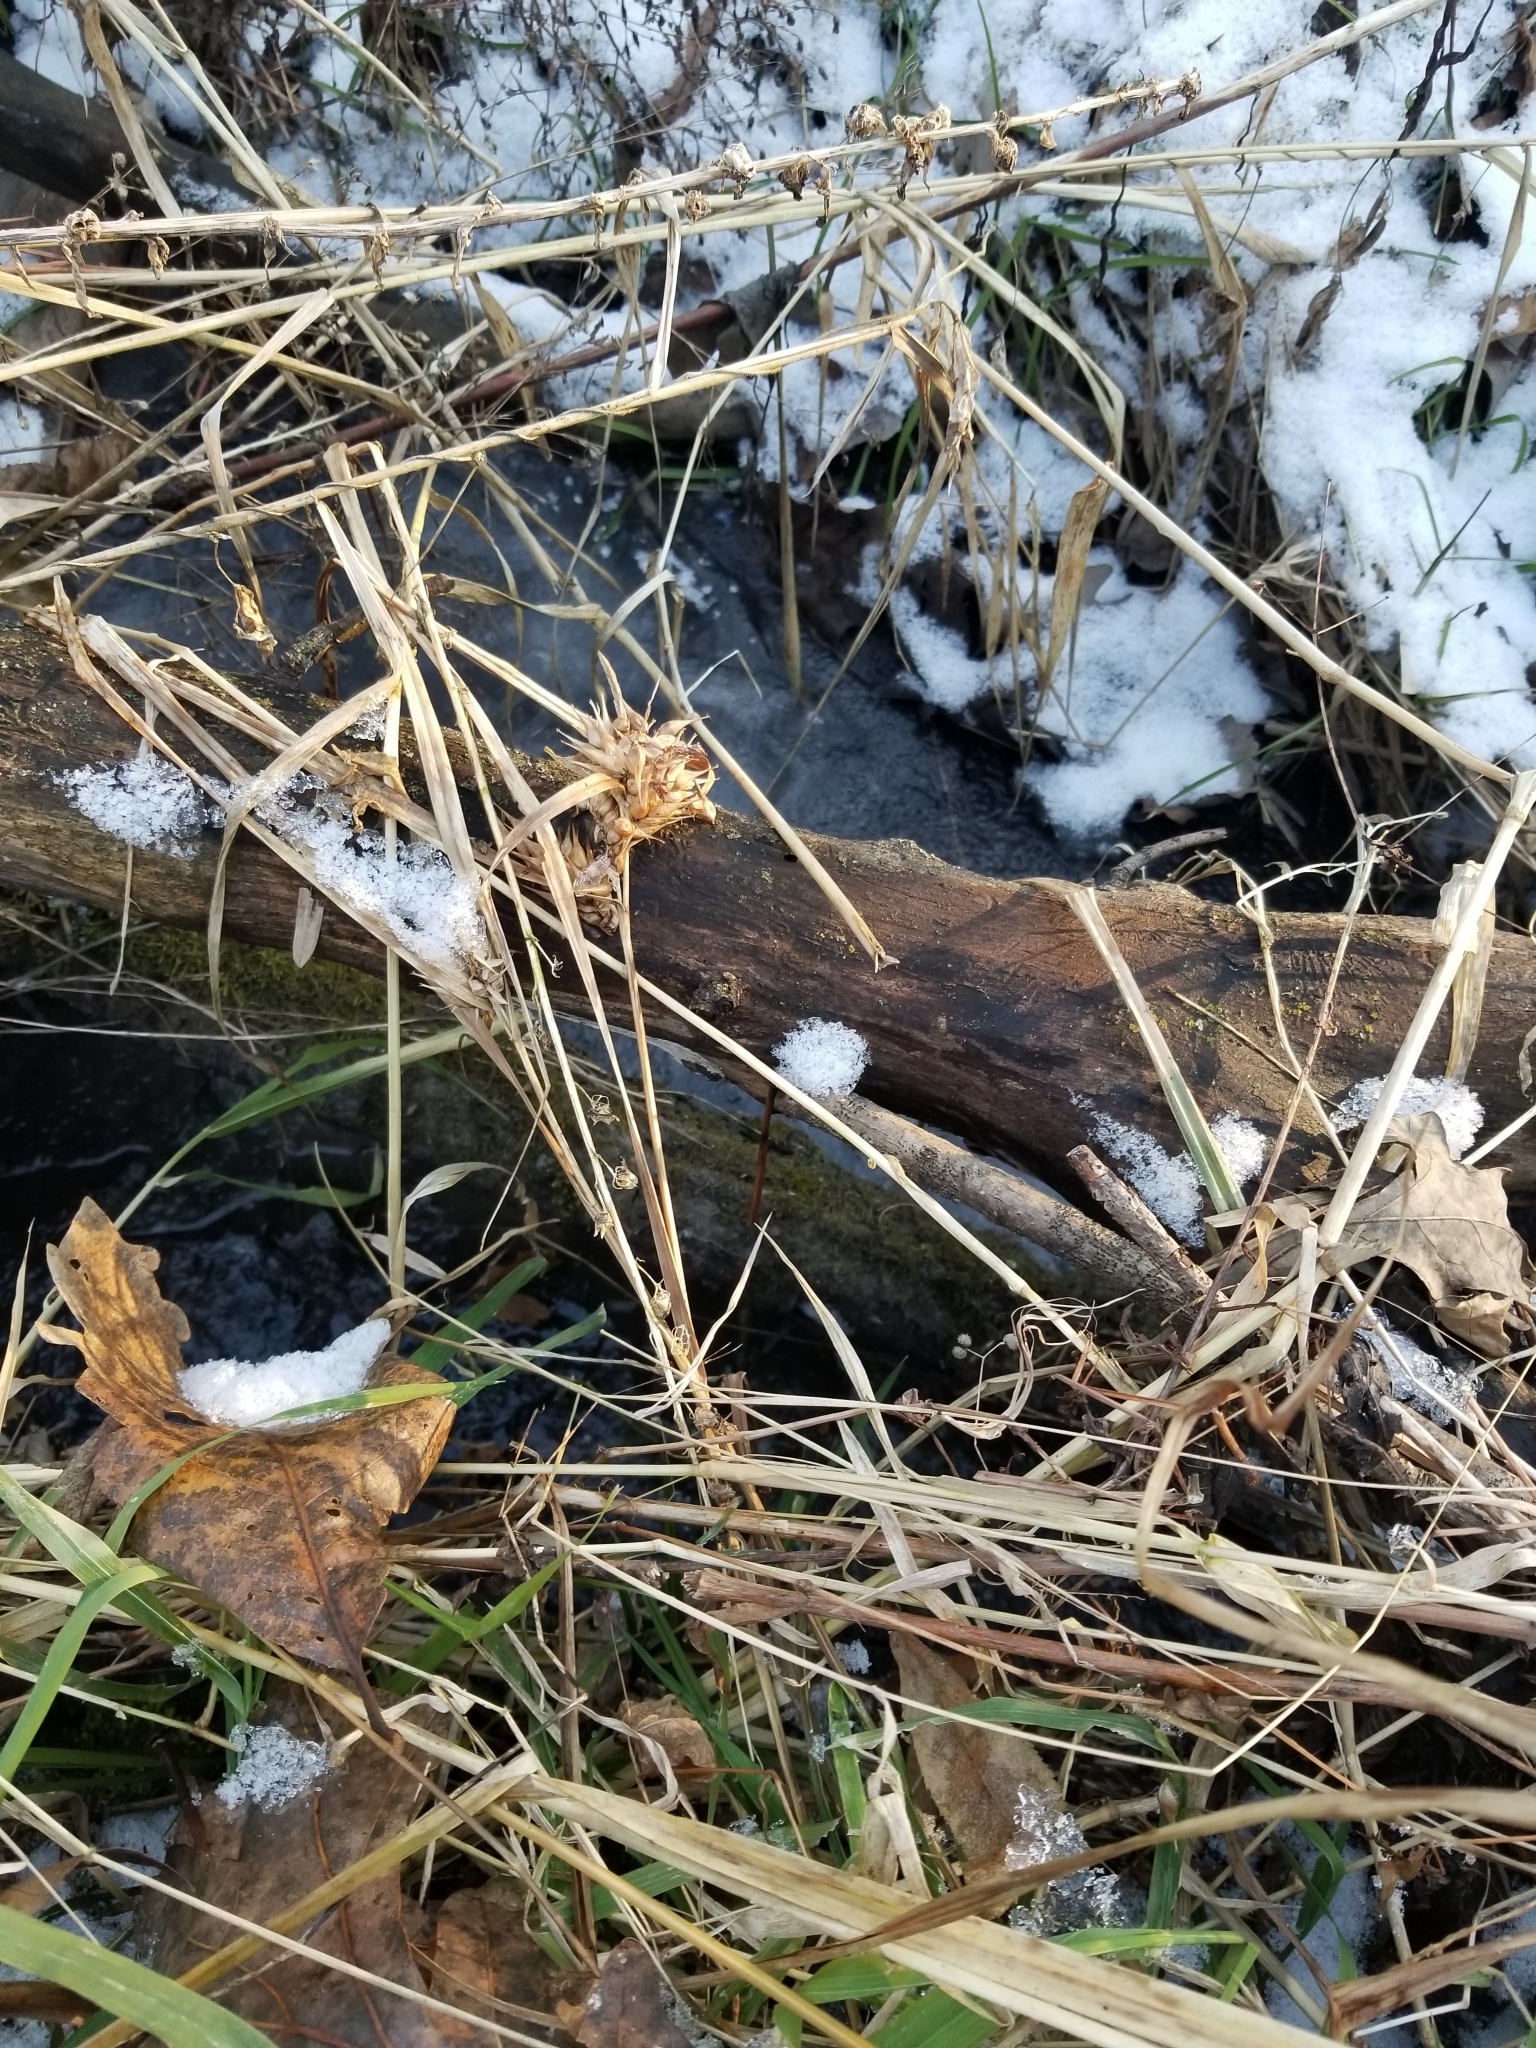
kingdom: Plantae
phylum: Tracheophyta
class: Liliopsida
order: Poales
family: Cyperaceae
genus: Carex
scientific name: Carex grayi
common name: Asa gray's sedge
